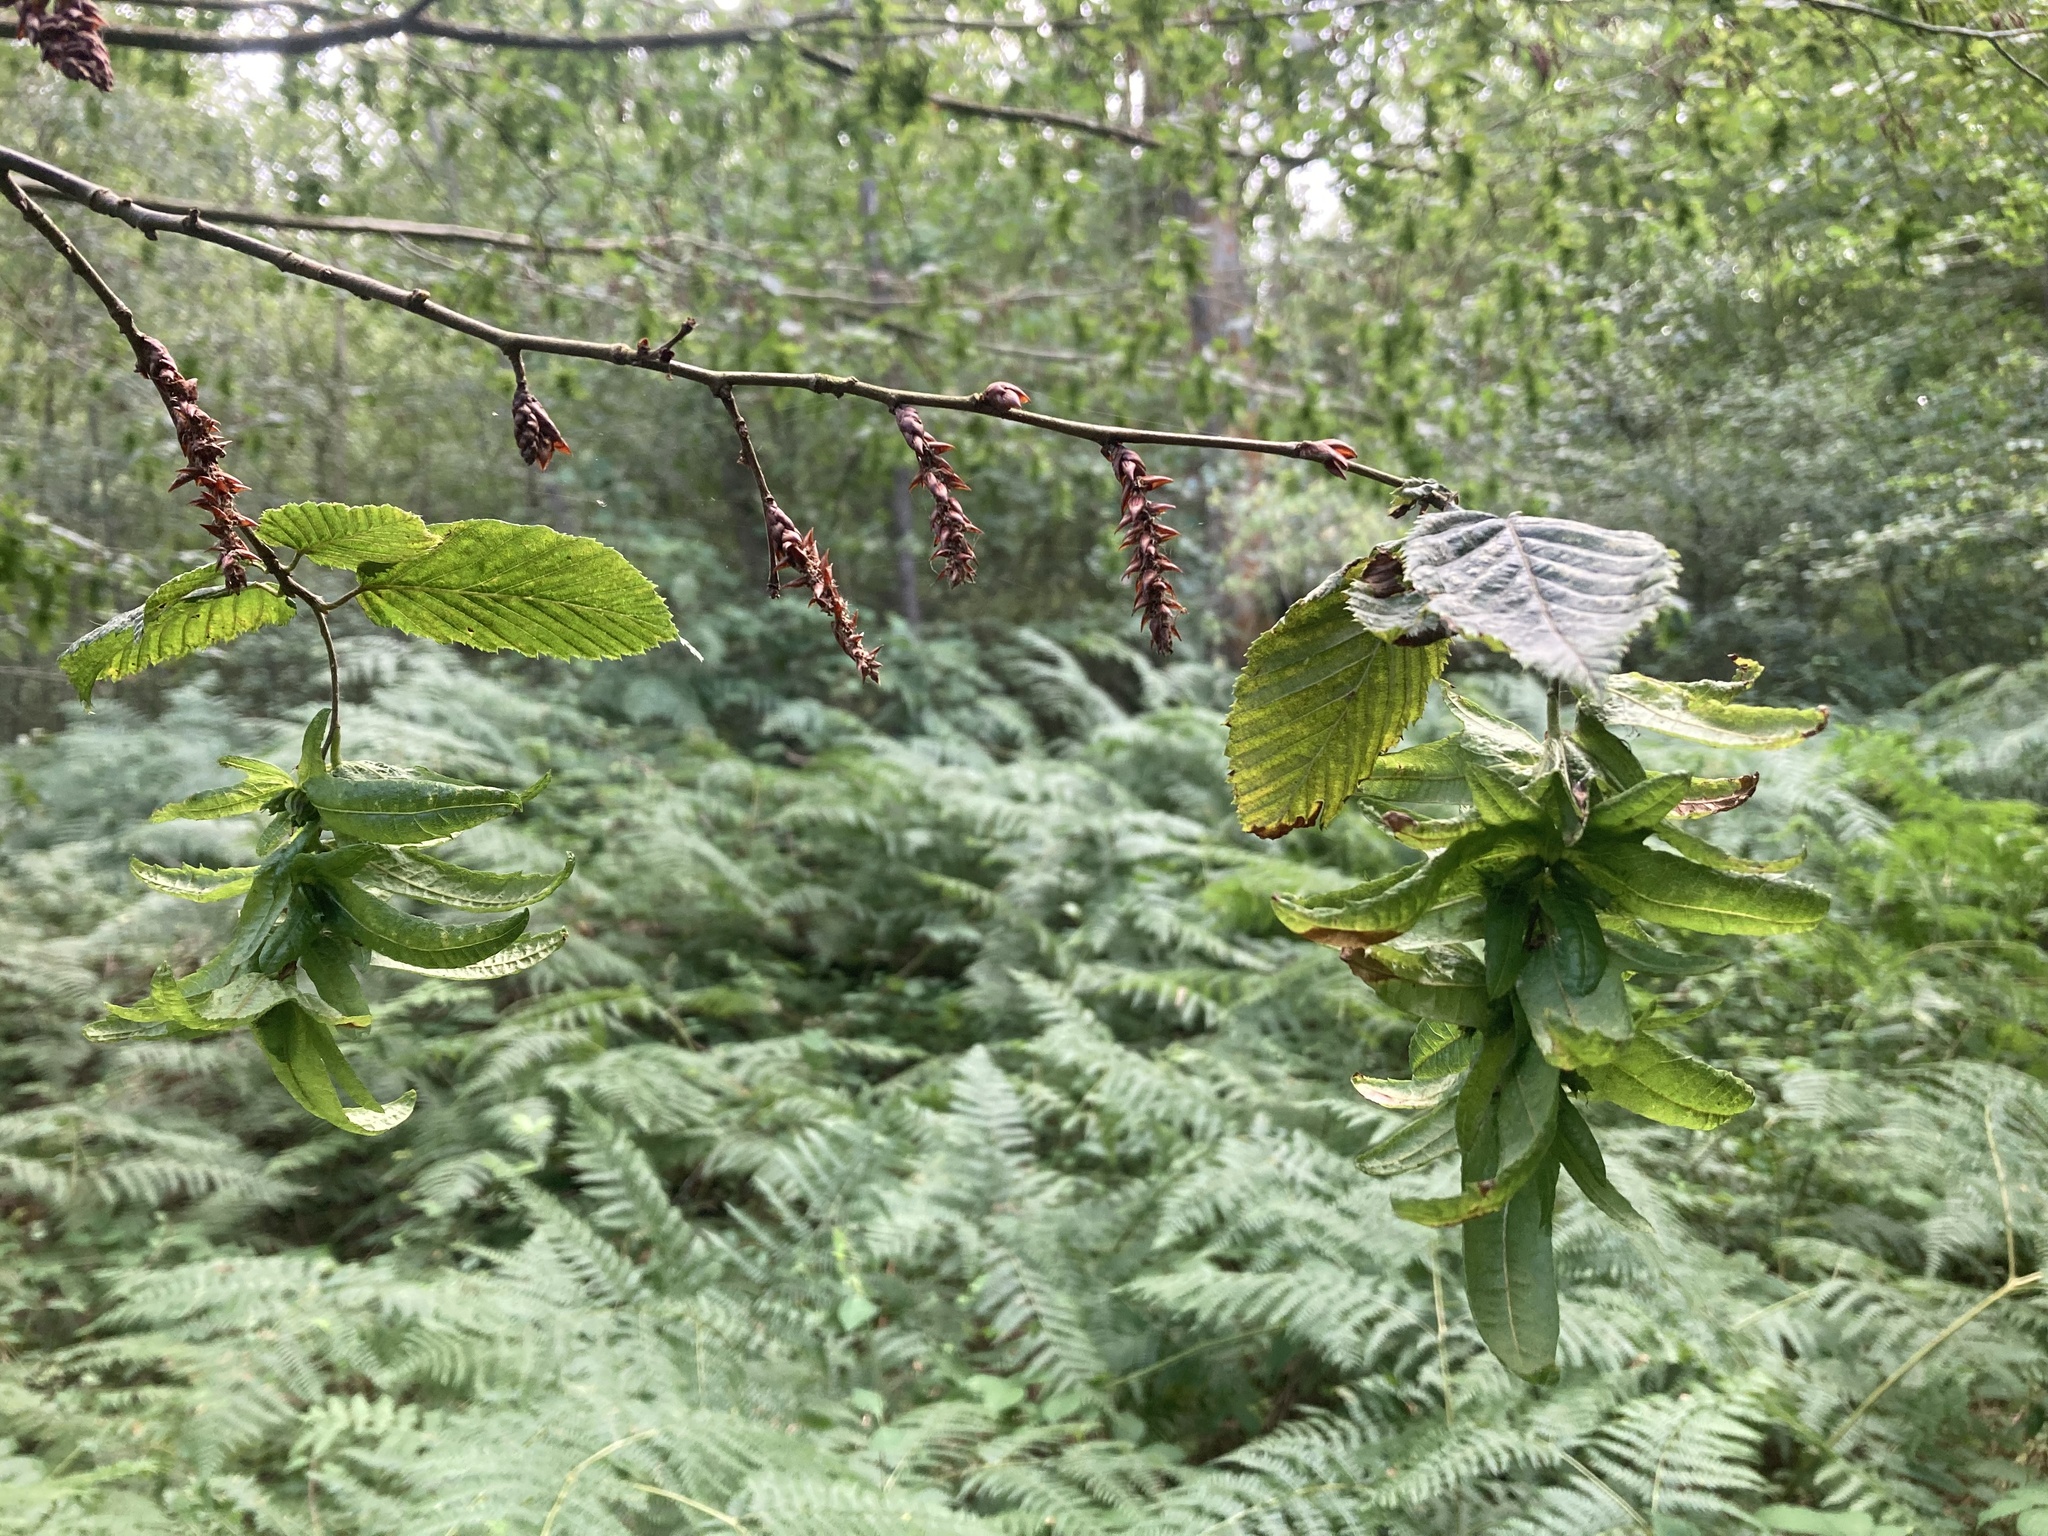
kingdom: Plantae
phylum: Tracheophyta
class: Magnoliopsida
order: Fagales
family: Betulaceae
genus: Carpinus
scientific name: Carpinus betulus
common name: Hornbeam
